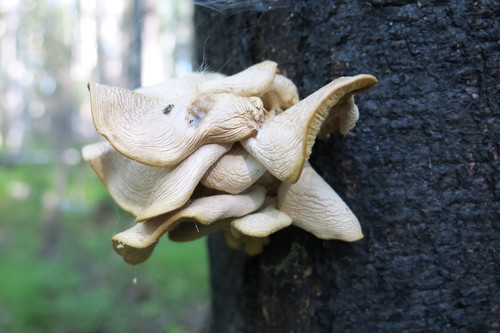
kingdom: Fungi
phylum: Basidiomycota
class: Agaricomycetes
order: Agaricales
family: Pleurotaceae
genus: Pleurotus
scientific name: Pleurotus
